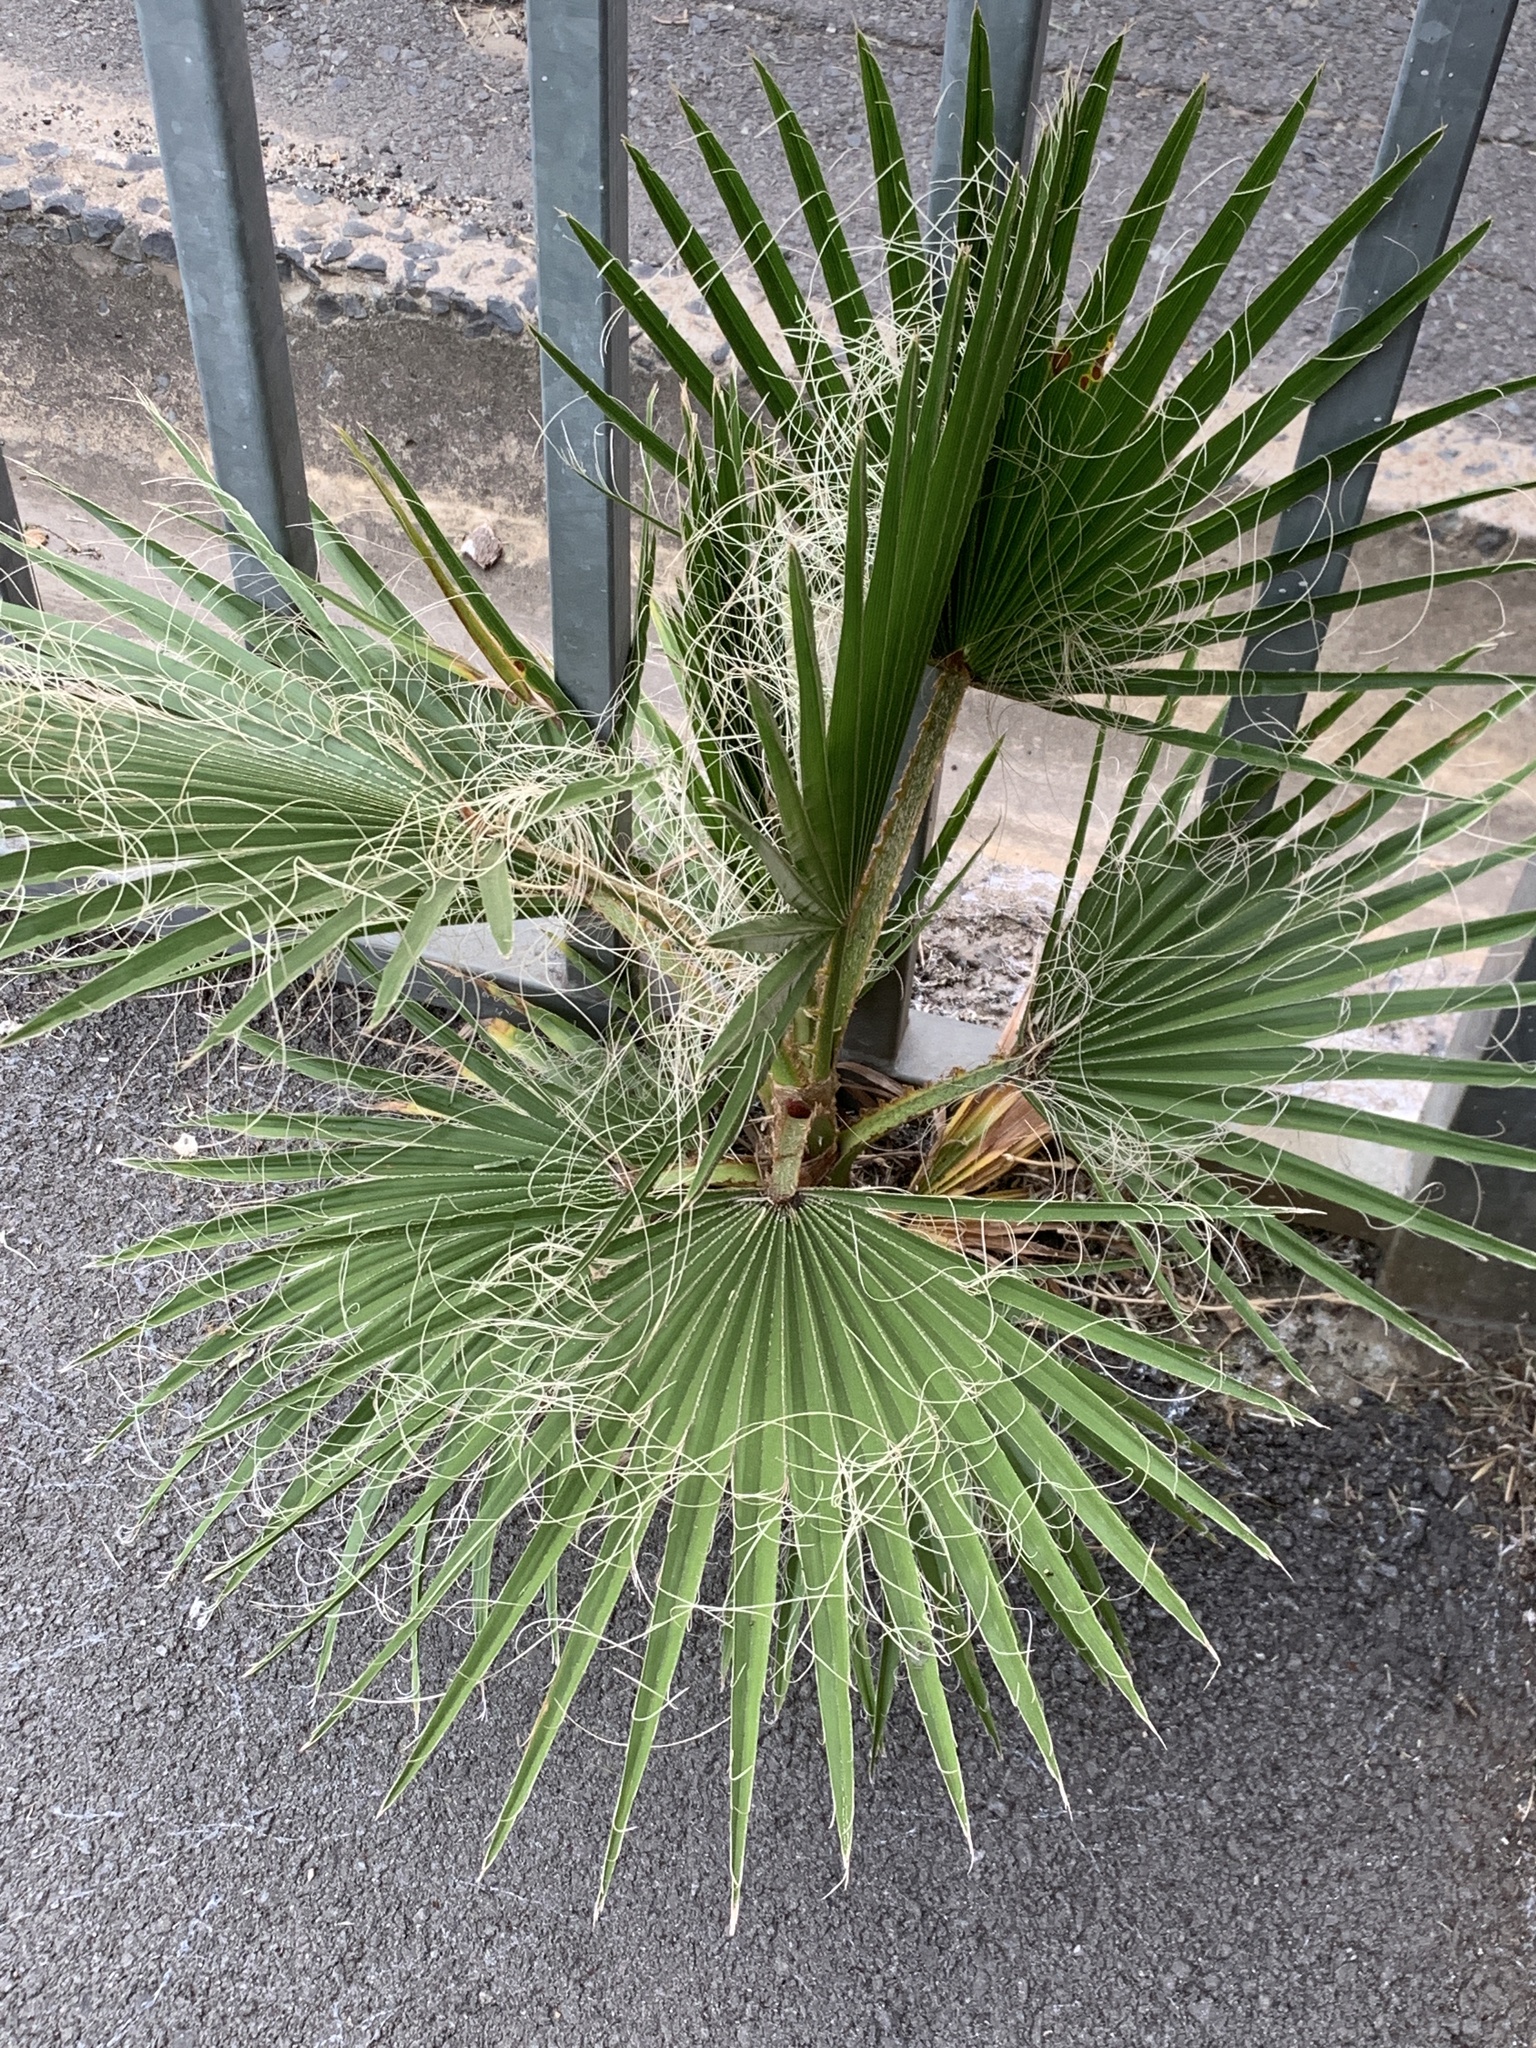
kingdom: Plantae
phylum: Tracheophyta
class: Liliopsida
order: Arecales
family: Arecaceae
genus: Washingtonia
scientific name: Washingtonia robusta
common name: Mexican fan palm
